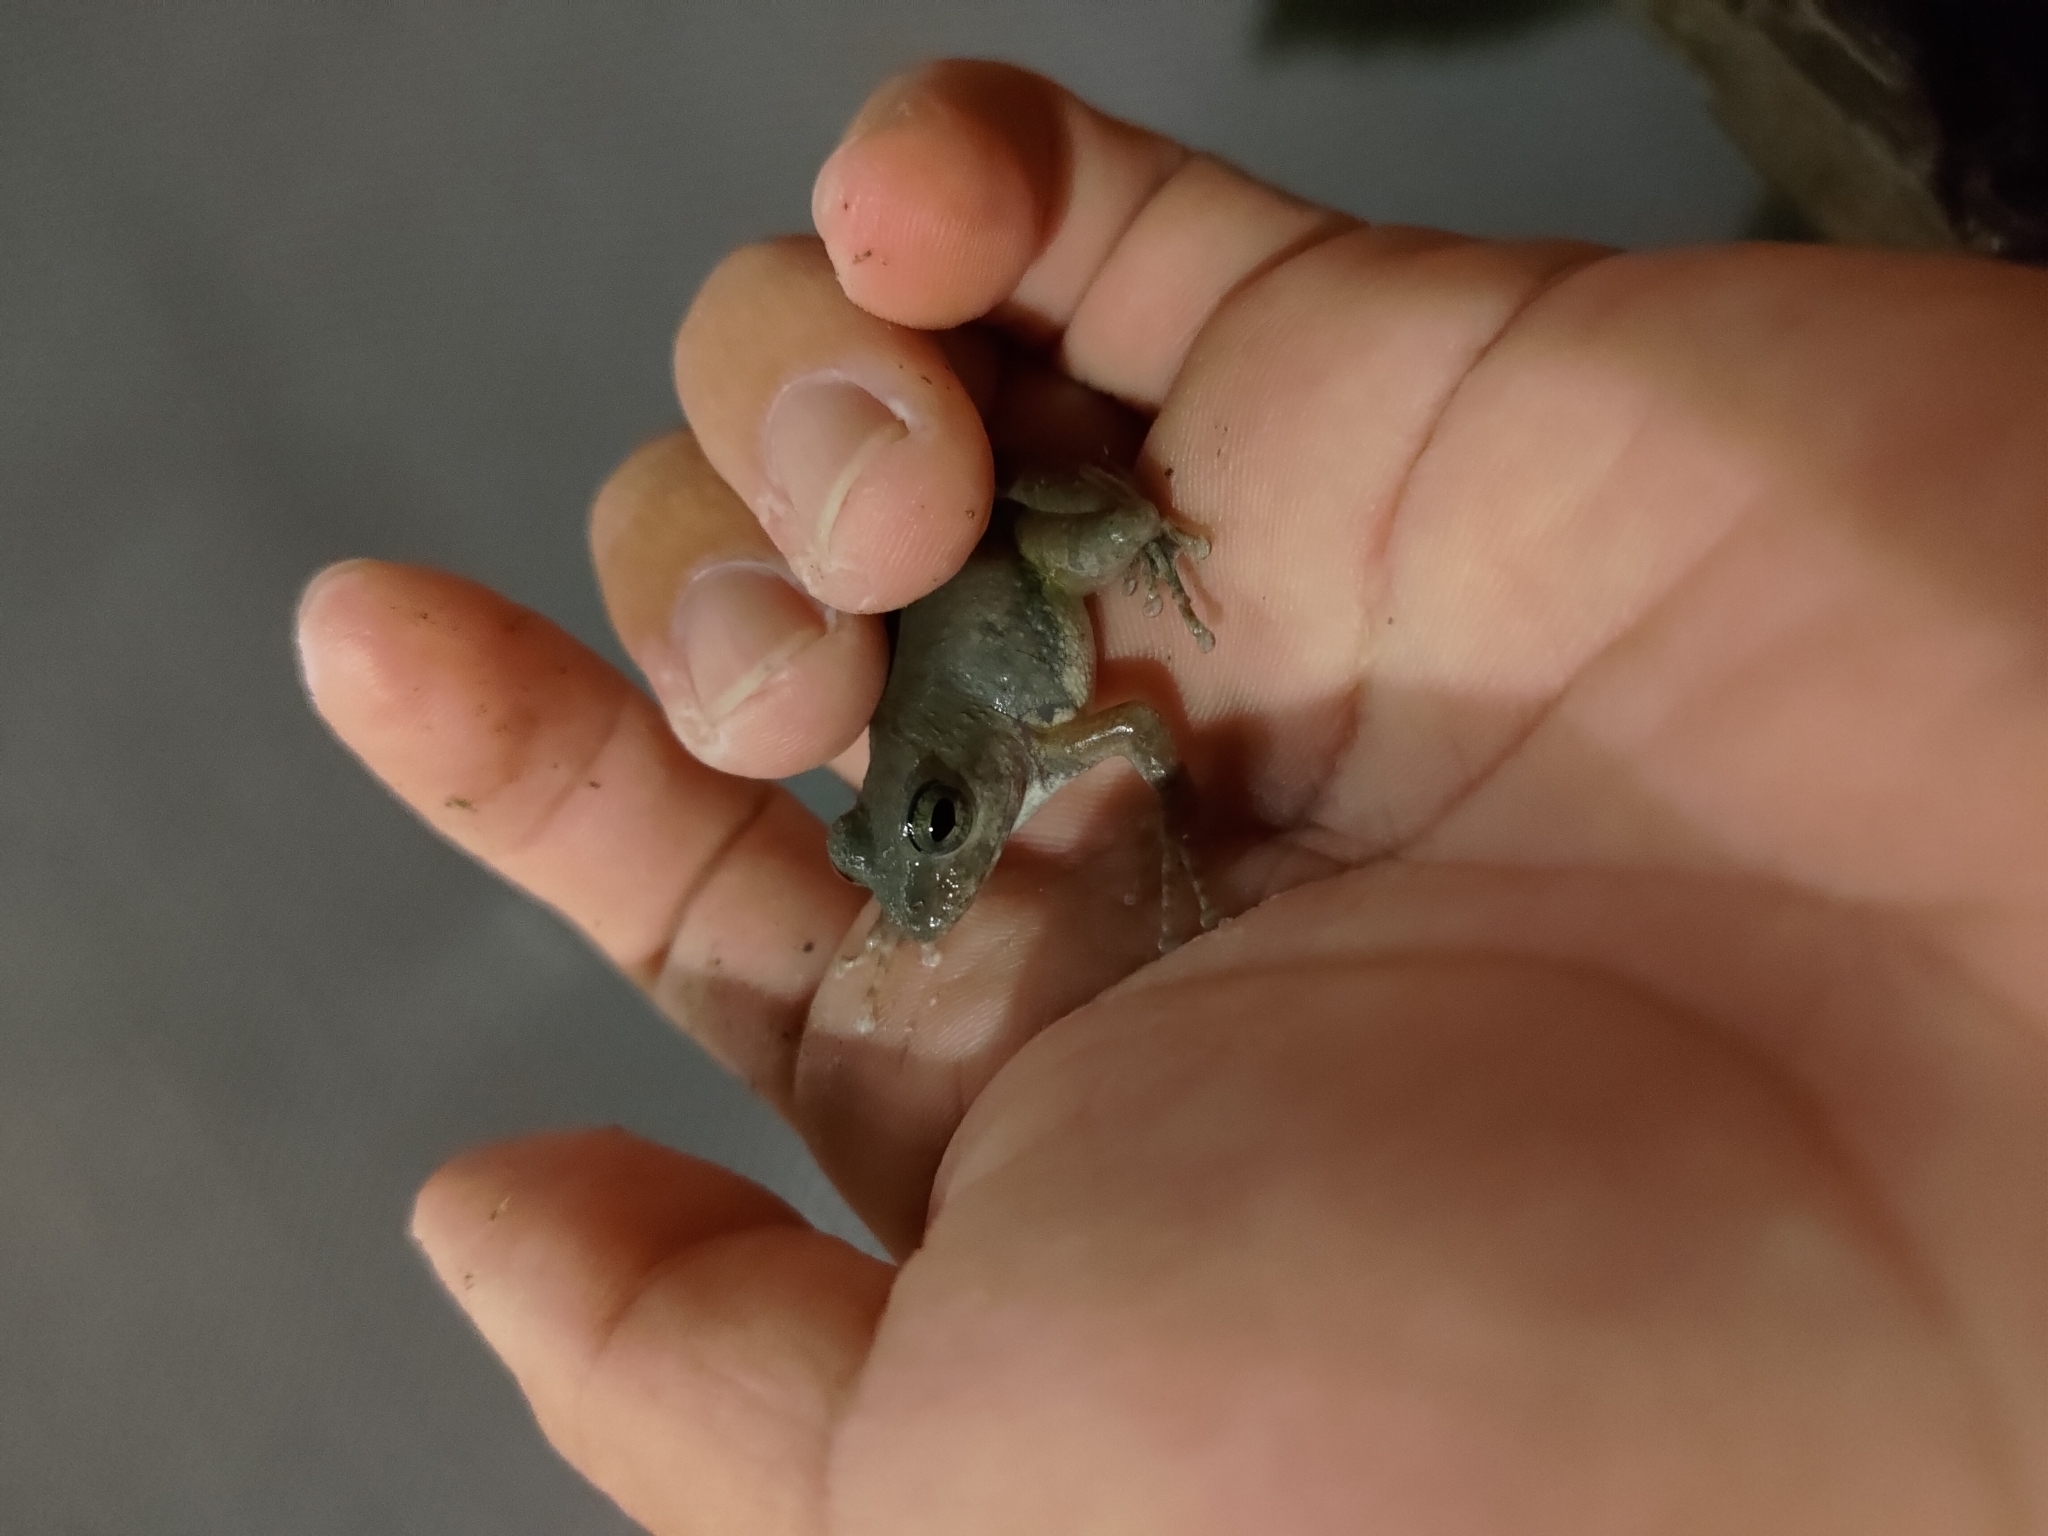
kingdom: Animalia
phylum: Chordata
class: Amphibia
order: Anura
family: Rhacophoridae
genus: Buergeria
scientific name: Buergeria otai
